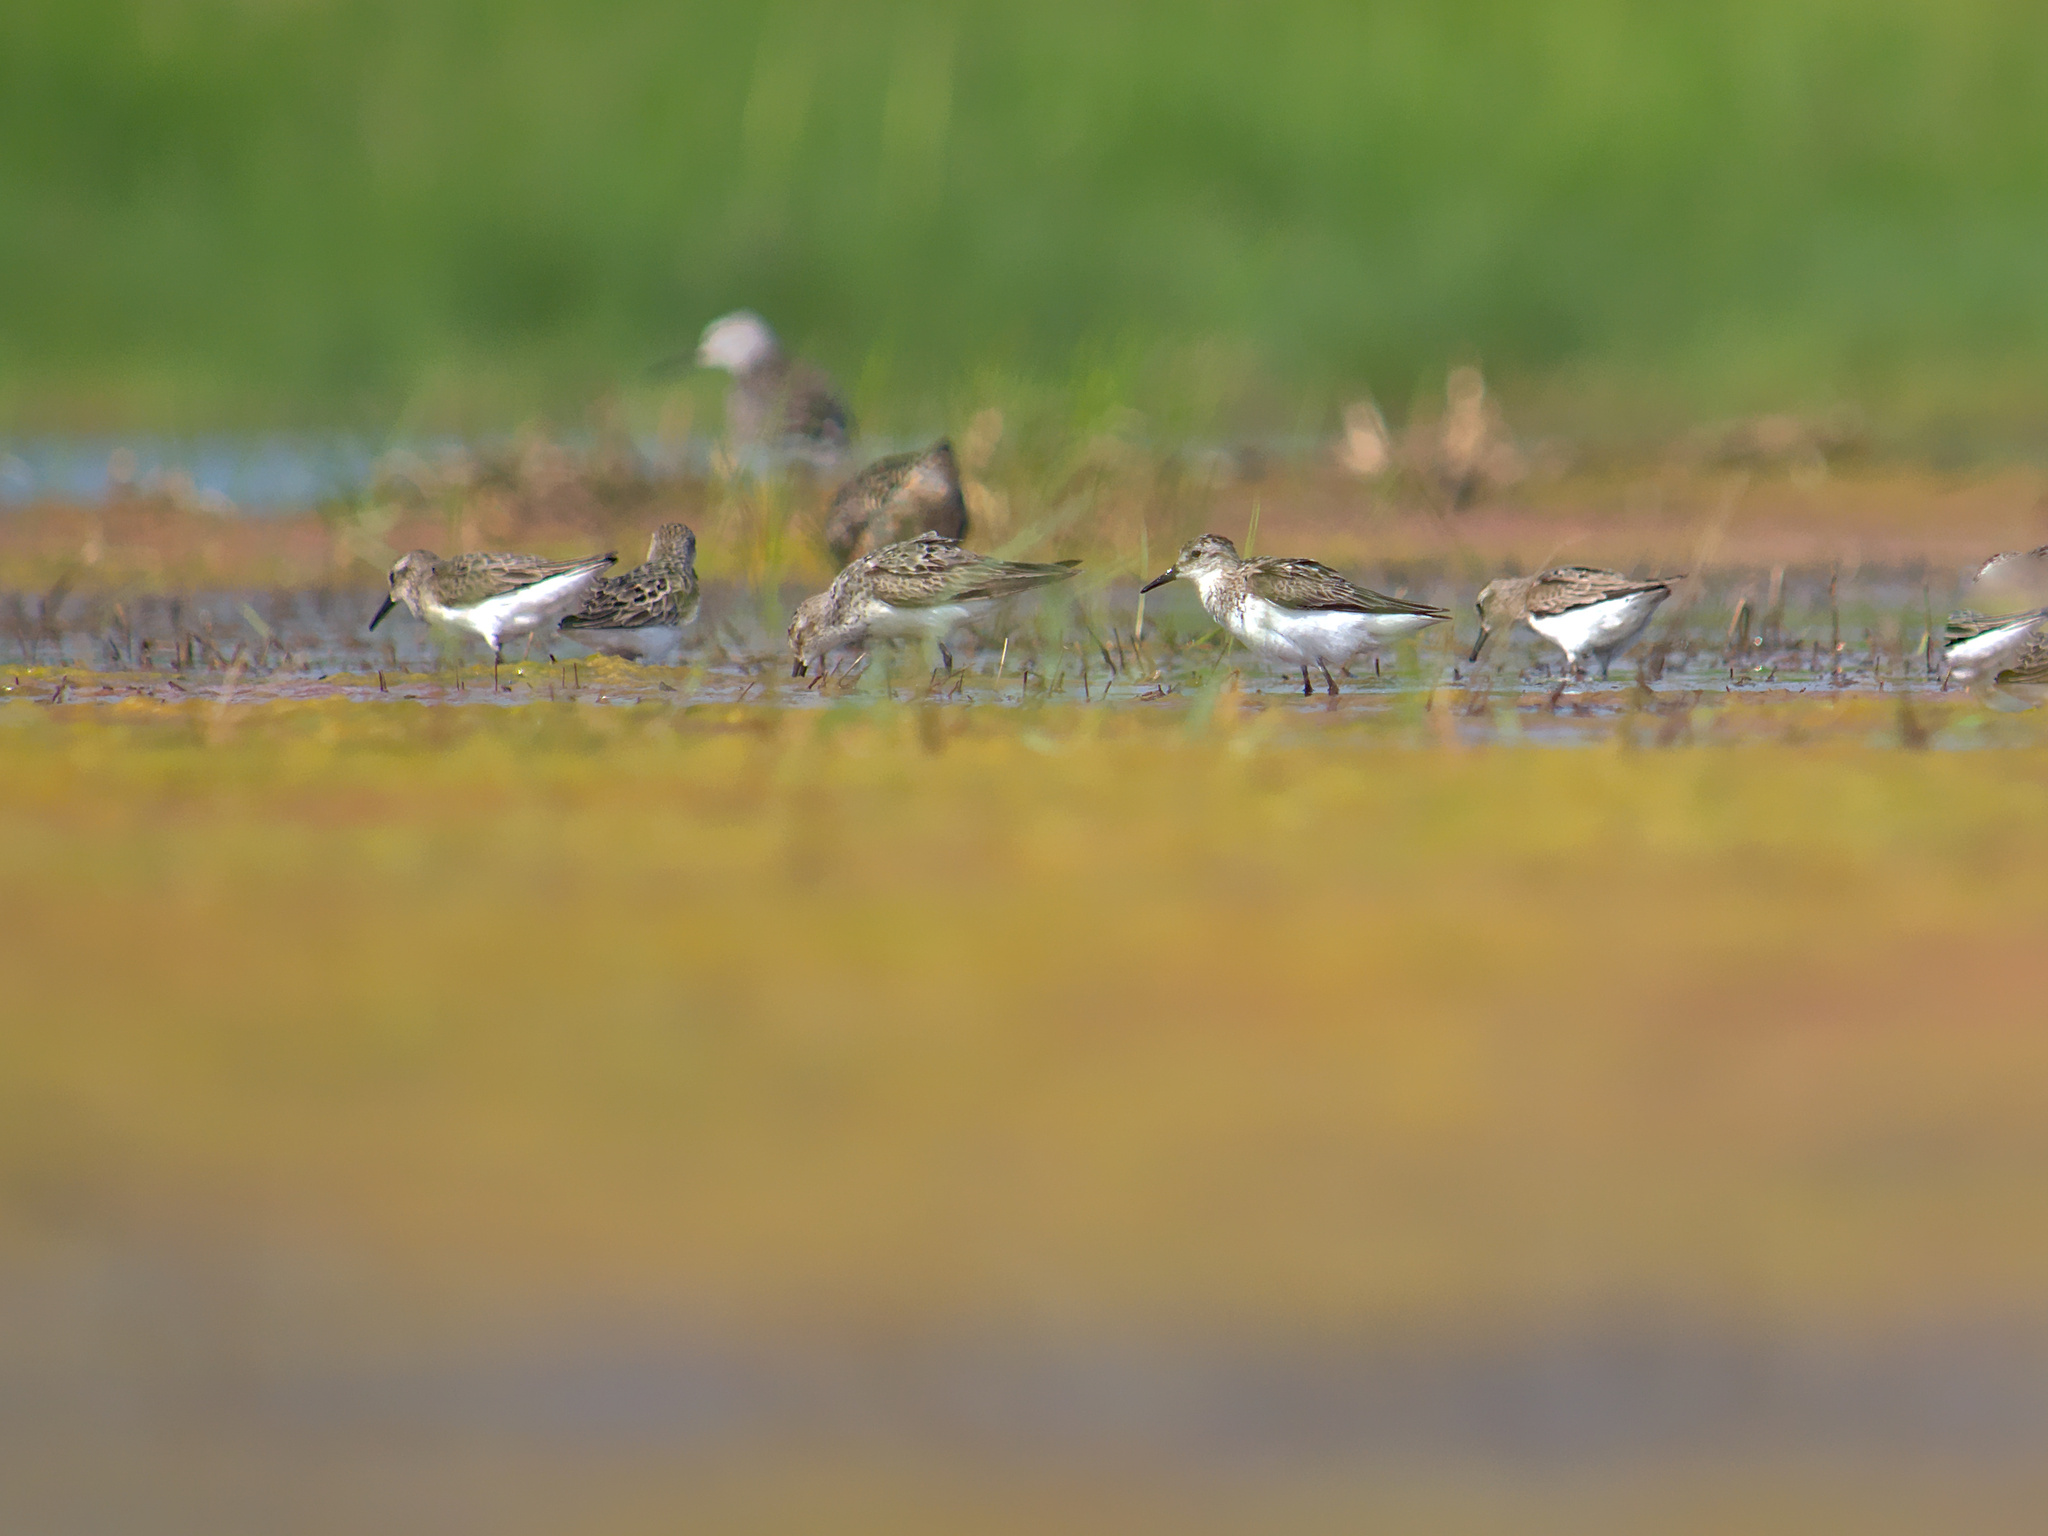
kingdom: Animalia
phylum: Chordata
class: Aves
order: Charadriiformes
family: Scolopacidae
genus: Calidris
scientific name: Calidris pusilla
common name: Semipalmated sandpiper
